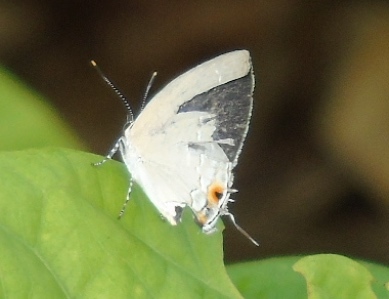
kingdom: Animalia
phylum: Arthropoda
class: Insecta
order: Lepidoptera
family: Lycaenidae
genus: Strephonota
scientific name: Strephonota tephraeus
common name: Pearly-gray hairstreak
